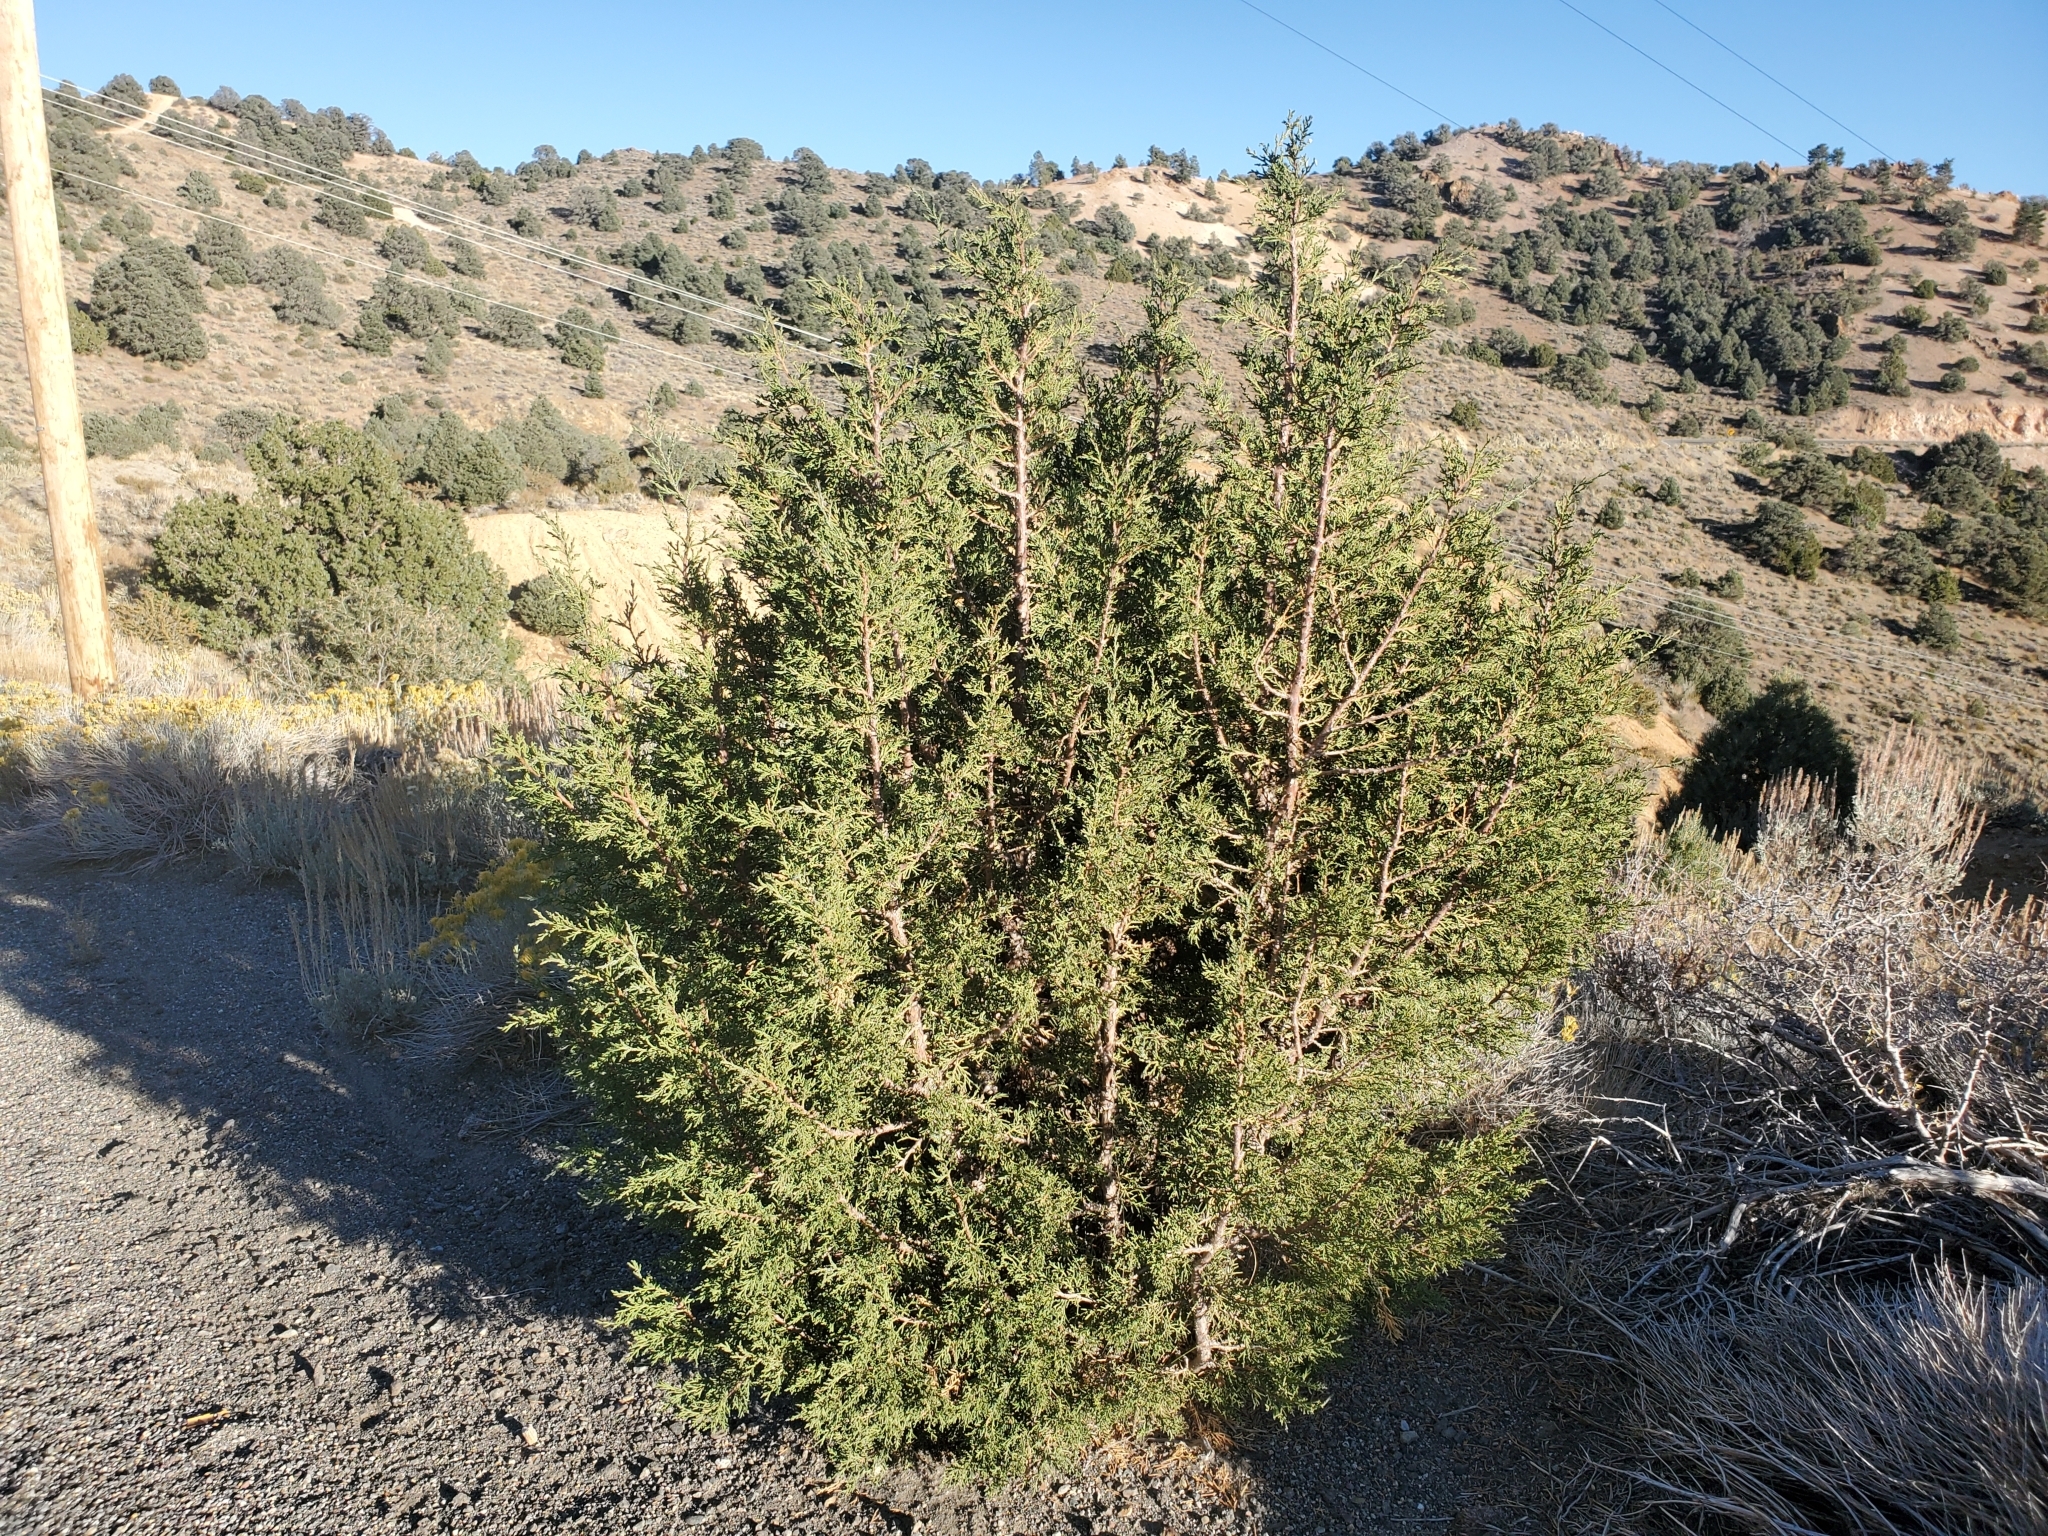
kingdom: Plantae
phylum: Tracheophyta
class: Pinopsida
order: Pinales
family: Cupressaceae
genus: Juniperus
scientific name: Juniperus osteosperma
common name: Utah juniper
